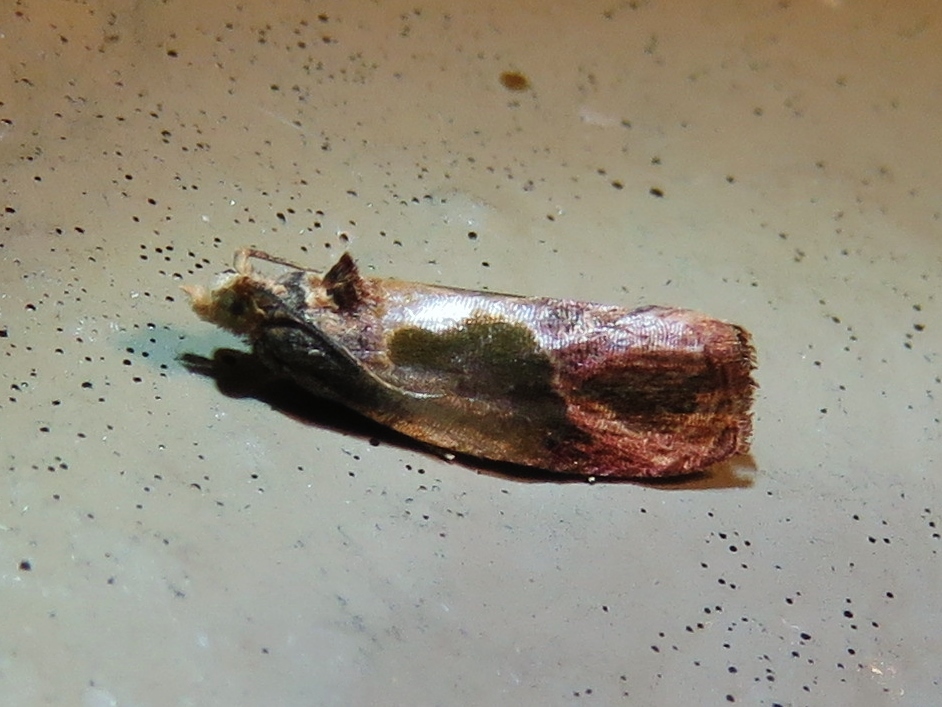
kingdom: Animalia
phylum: Arthropoda
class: Insecta
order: Lepidoptera
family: Tortricidae
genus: Eumarozia
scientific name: Eumarozia malachitana
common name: Sculptured moth
